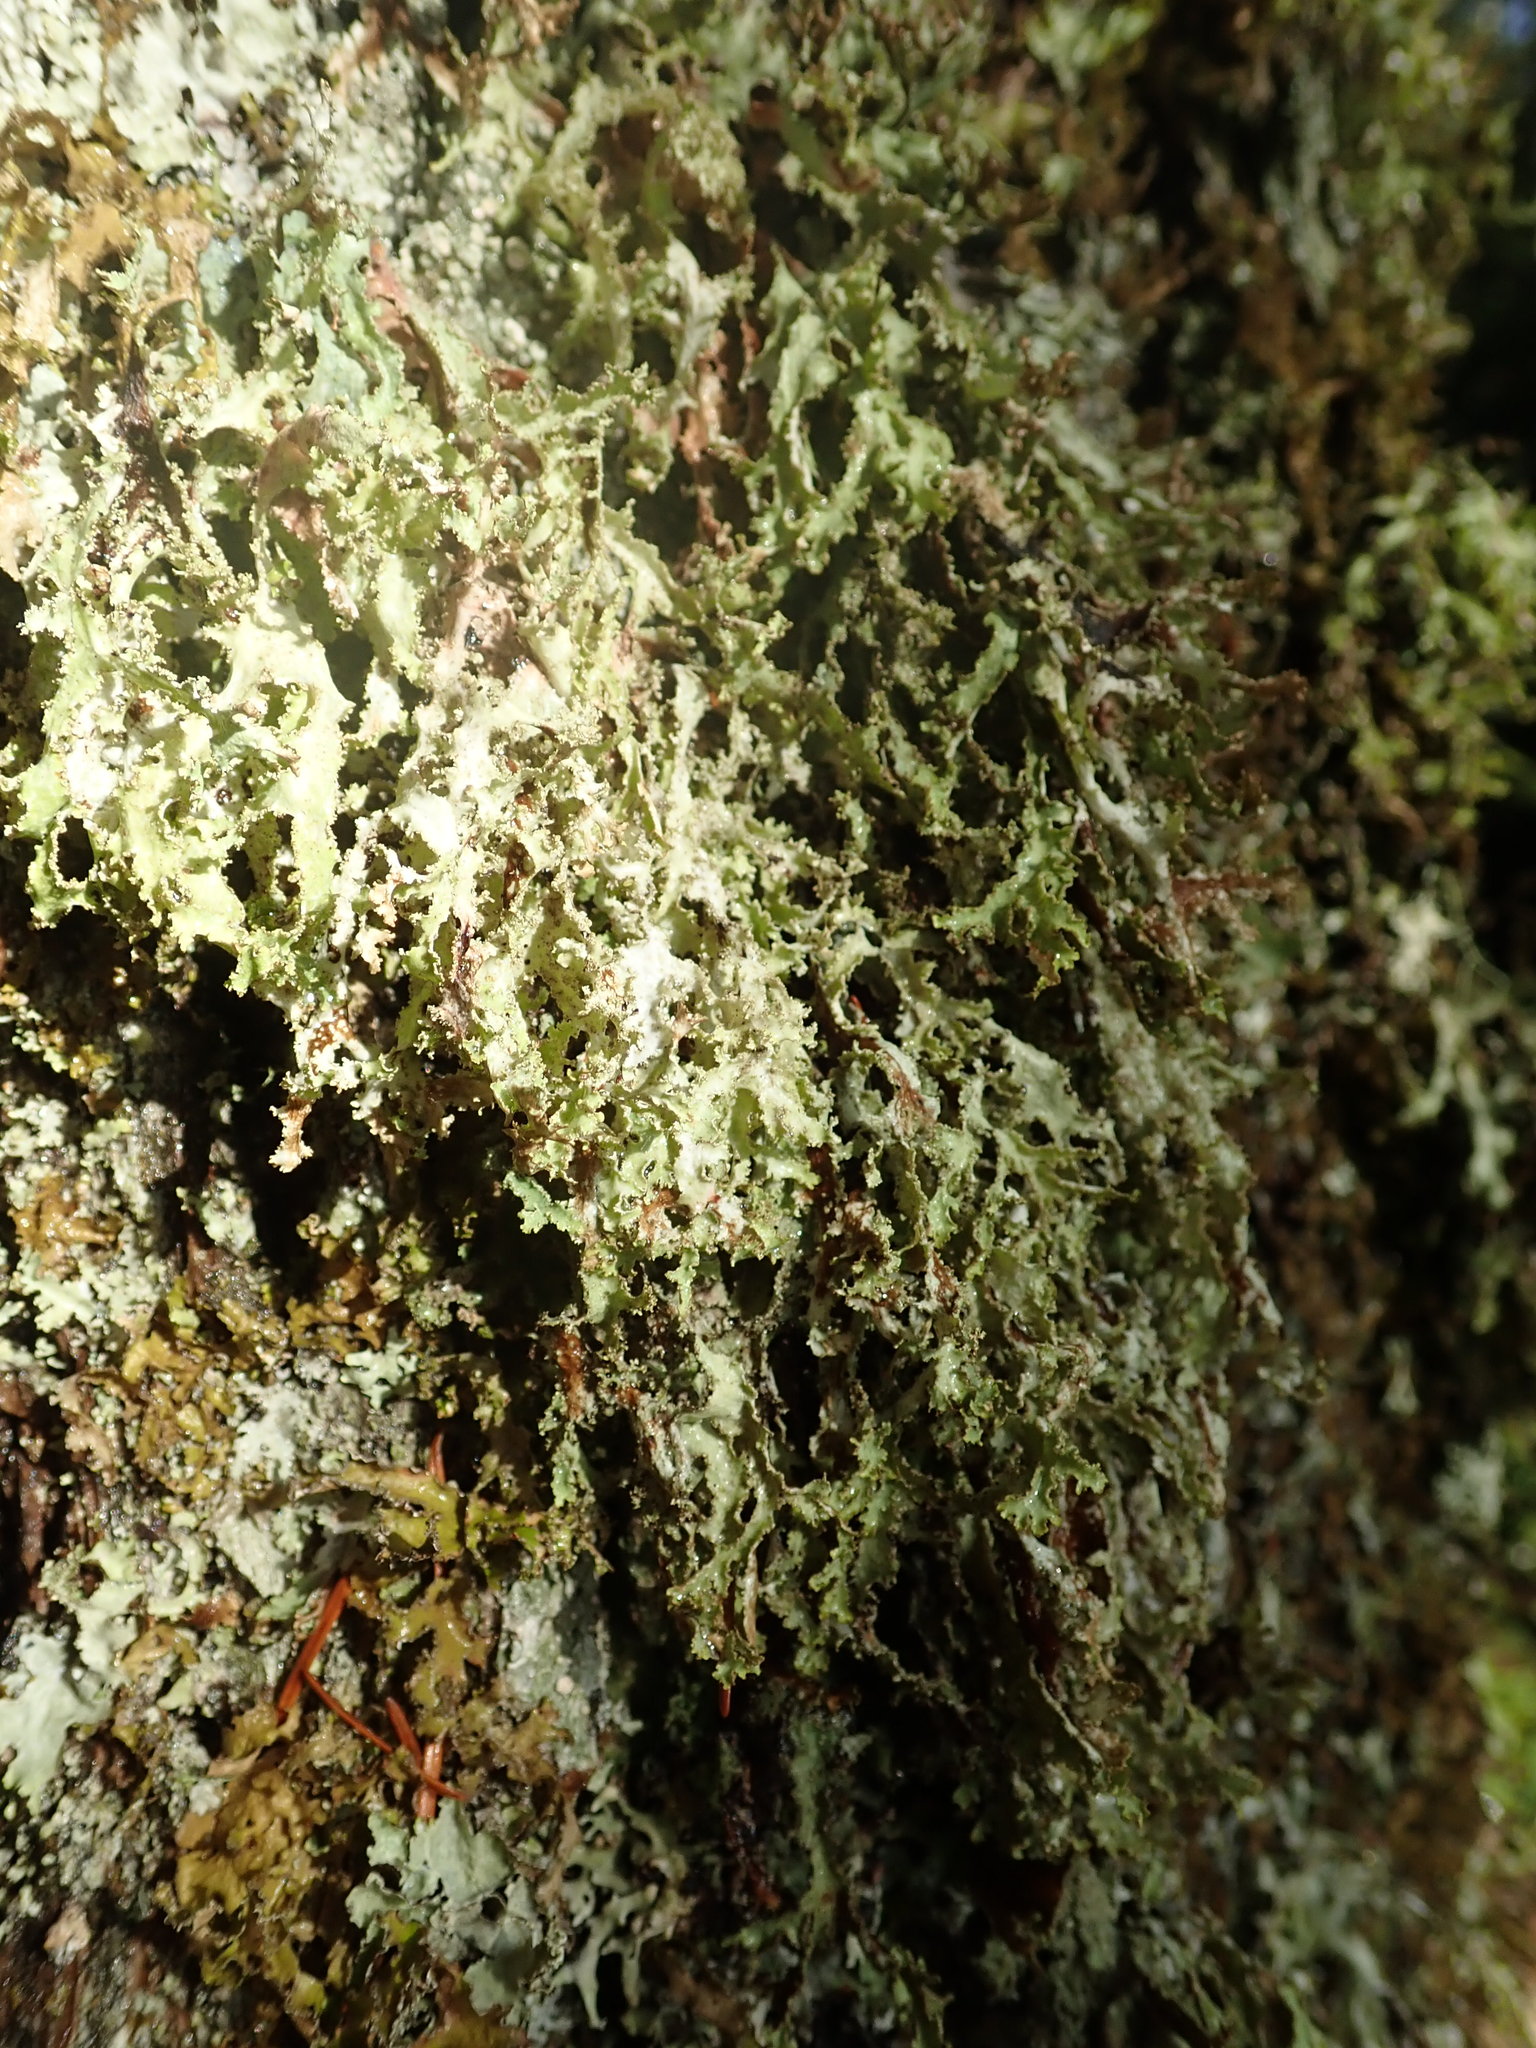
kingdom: Fungi
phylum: Ascomycota
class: Lecanoromycetes
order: Lecanorales
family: Parmeliaceae
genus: Platismatia
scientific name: Platismatia herrei
